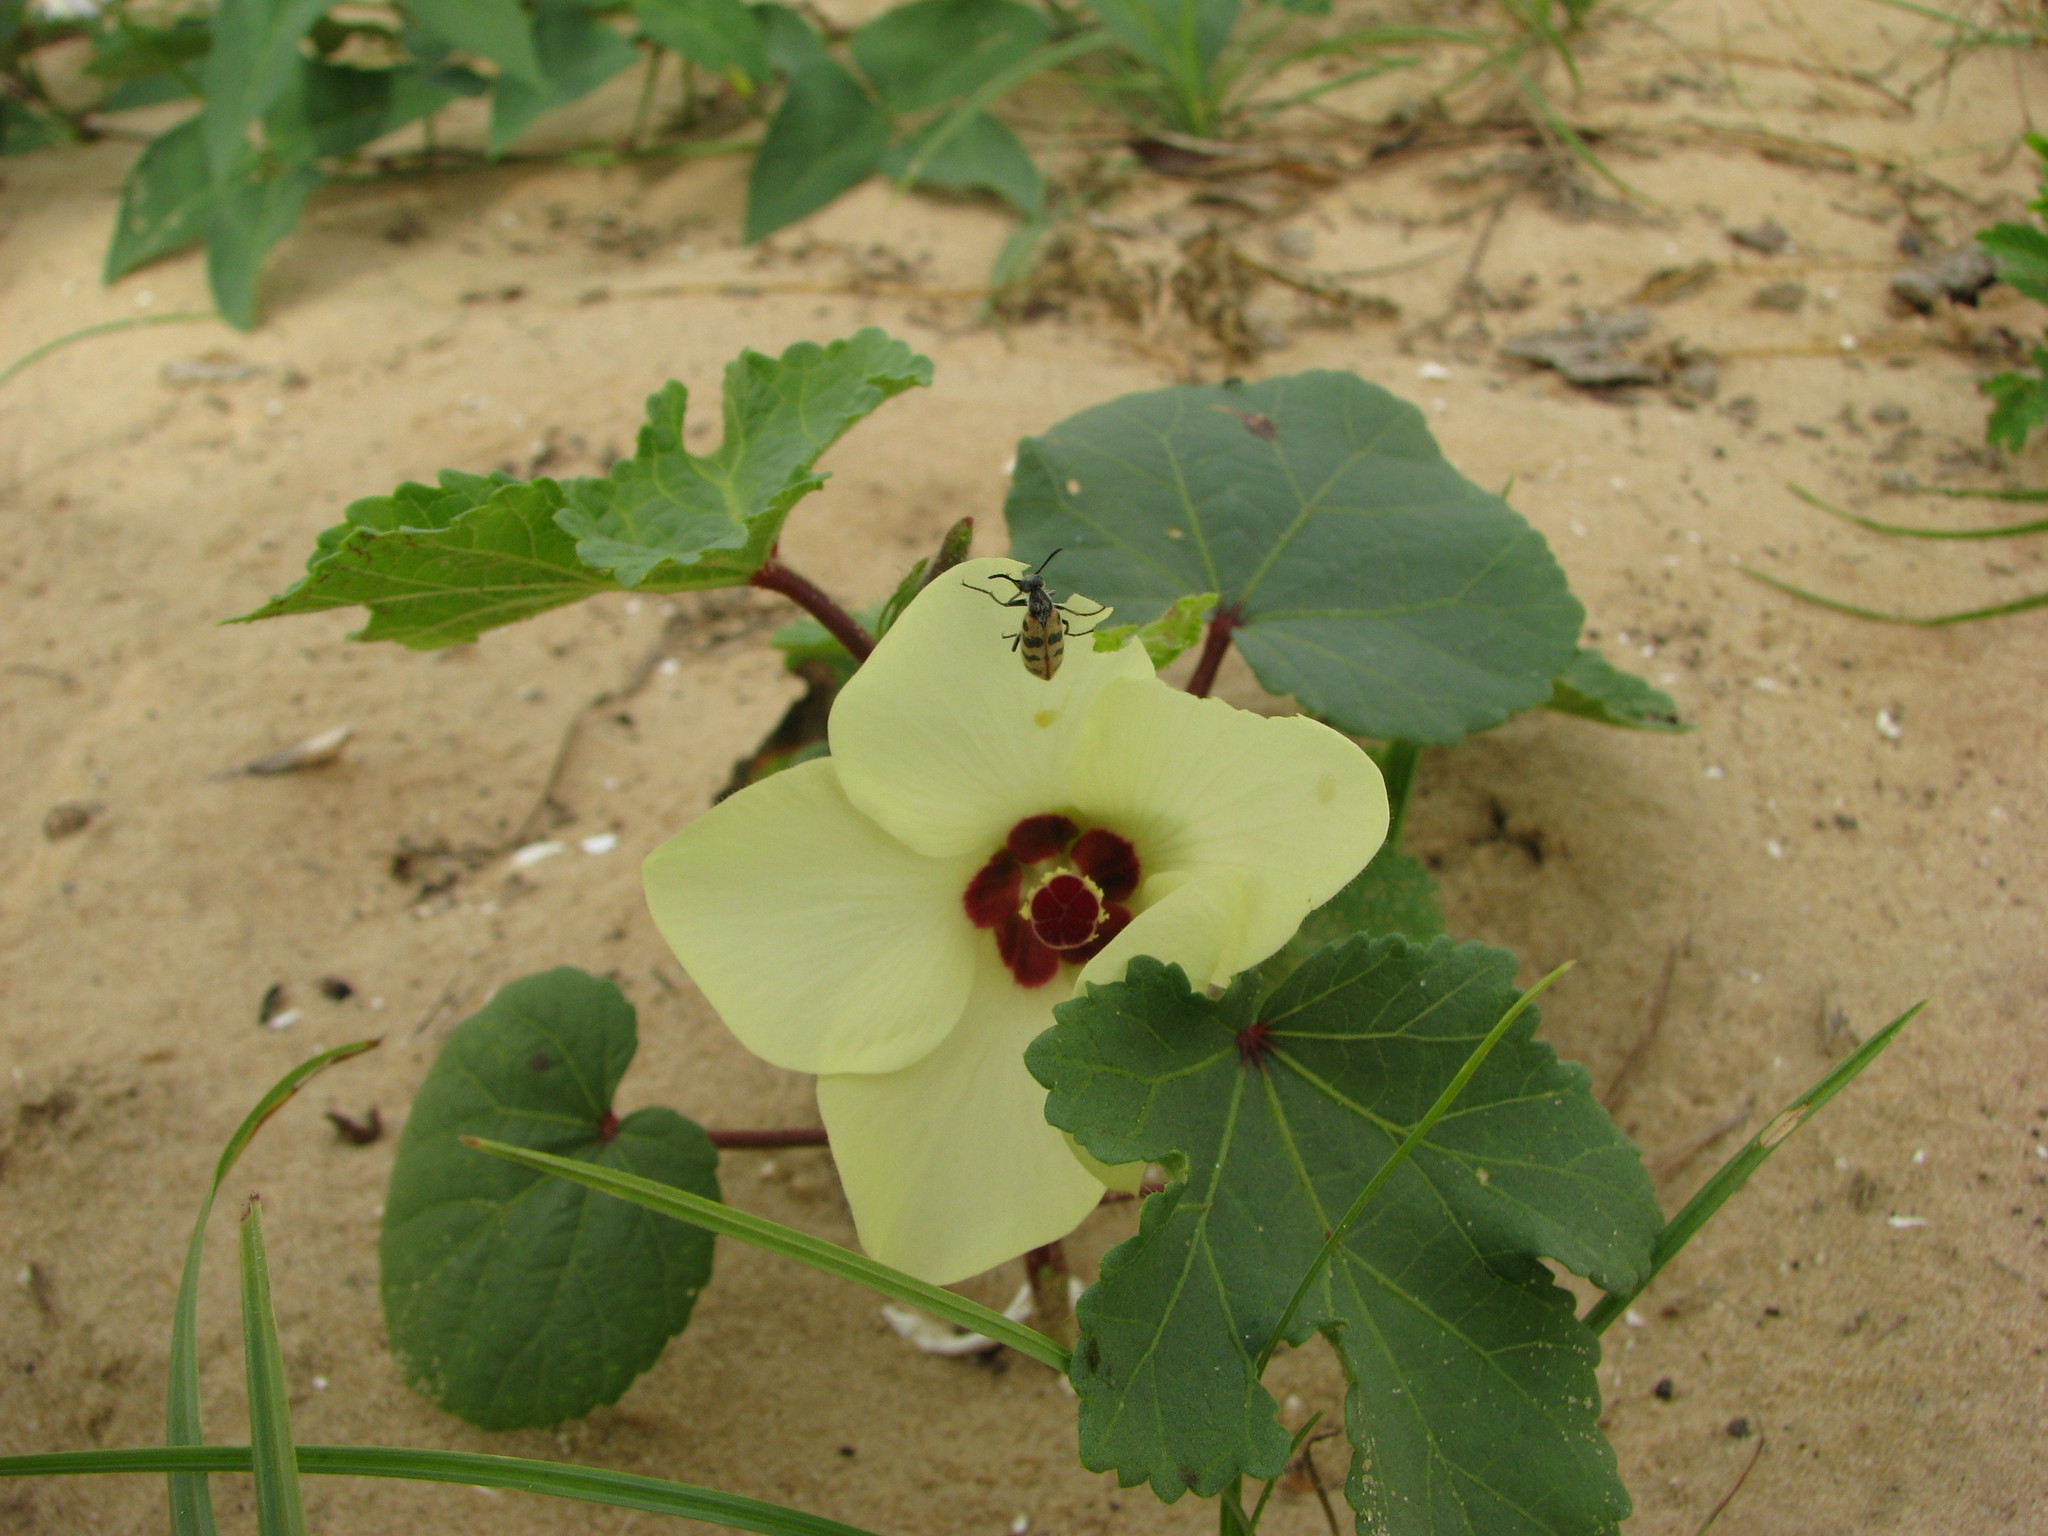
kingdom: Plantae
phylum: Tracheophyta
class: Magnoliopsida
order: Malvales
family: Malvaceae
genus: Abelmoschus
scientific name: Abelmoschus esculentus
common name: Okra
